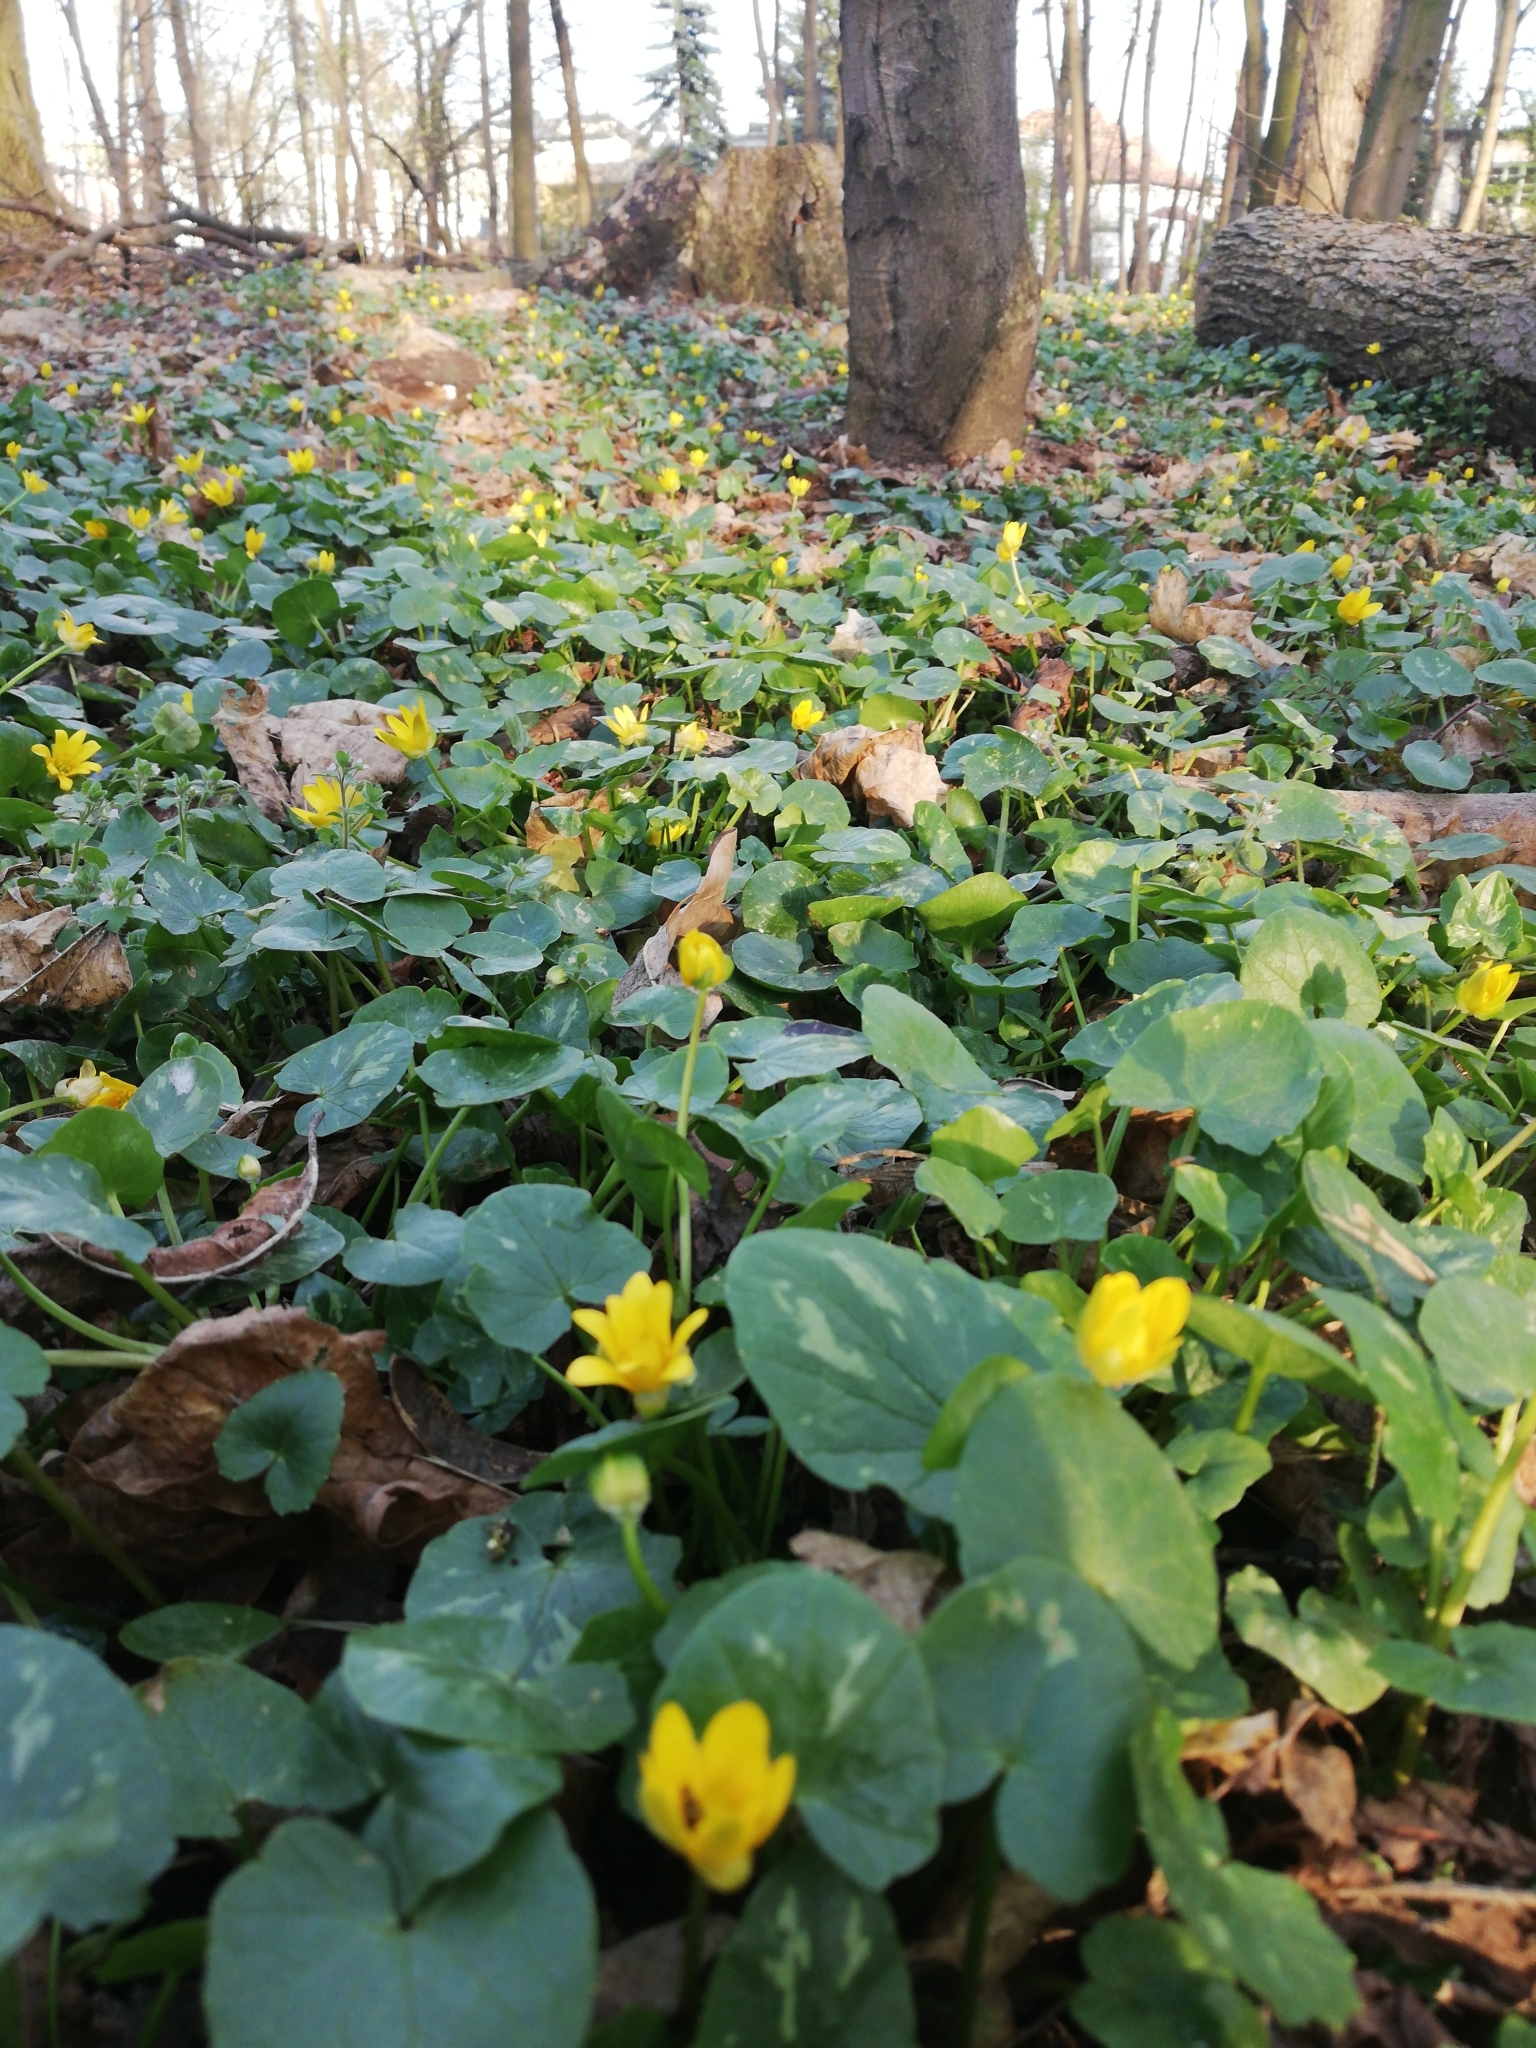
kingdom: Plantae
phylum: Tracheophyta
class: Magnoliopsida
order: Ranunculales
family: Ranunculaceae
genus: Ficaria
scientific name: Ficaria verna
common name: Lesser celandine
